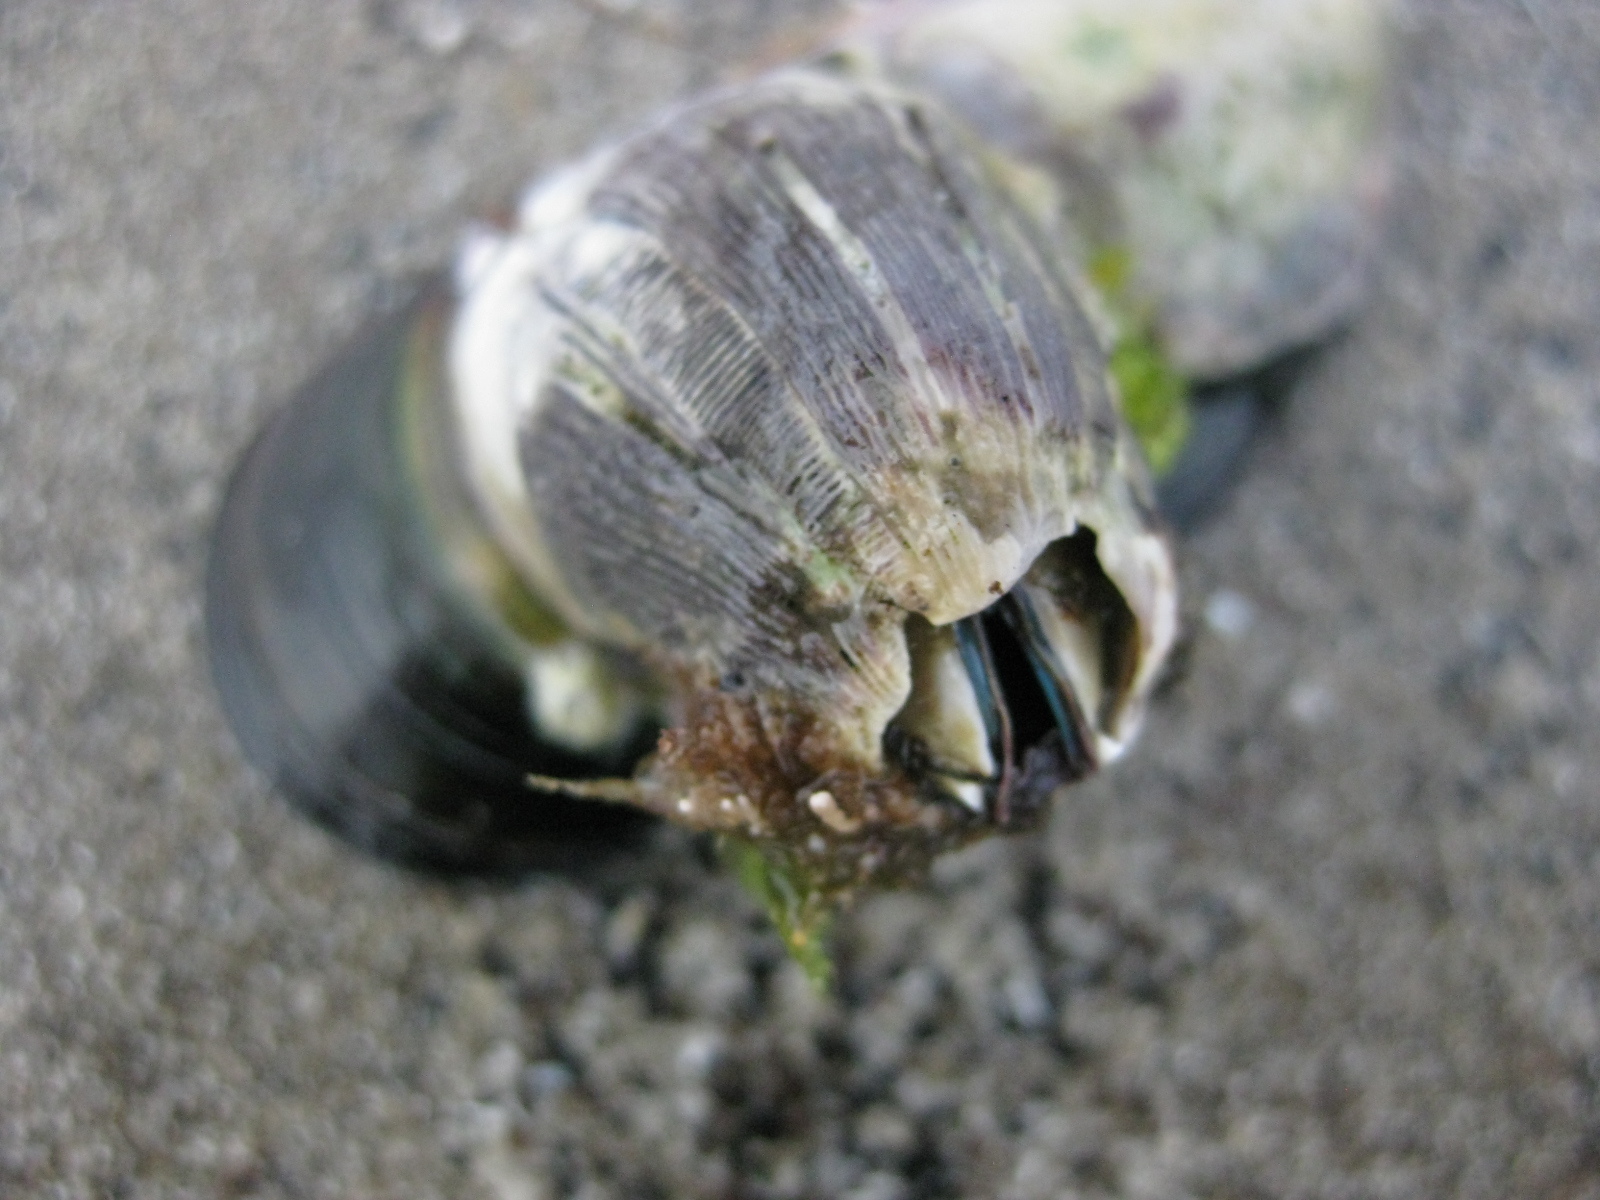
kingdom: Animalia
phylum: Arthropoda
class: Maxillopoda
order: Sessilia
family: Balanidae
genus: Austromegabalanus
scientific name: Austromegabalanus nigrescens
